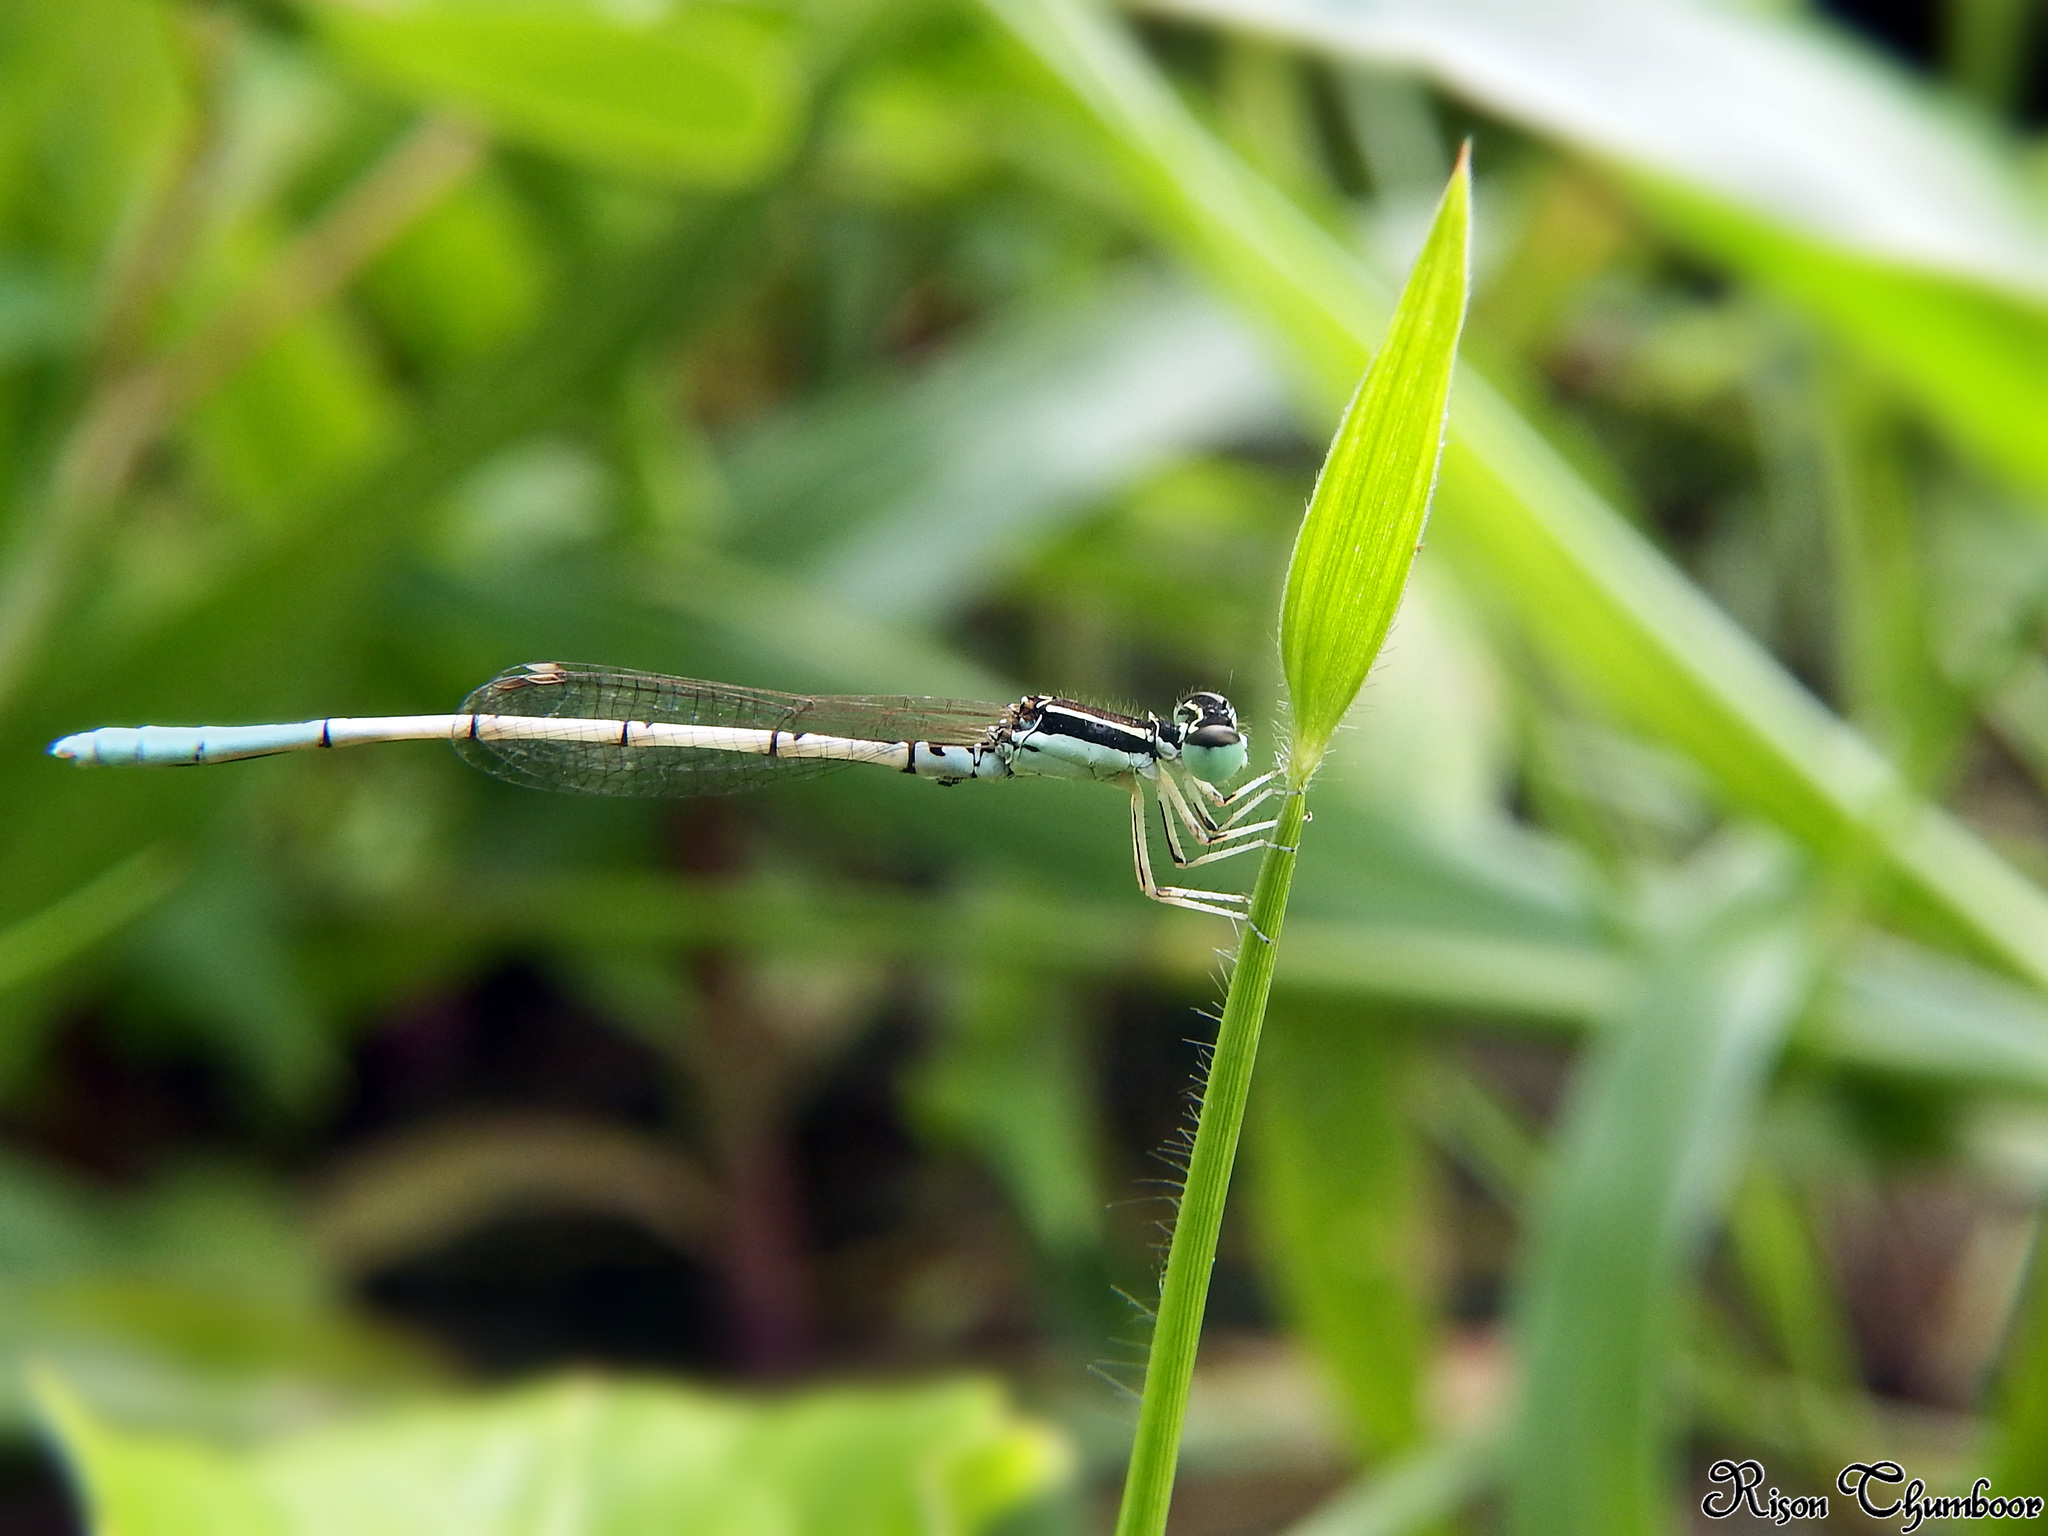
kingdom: Animalia
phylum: Arthropoda
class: Insecta
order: Odonata
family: Coenagrionidae
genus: Agriocnemis
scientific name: Agriocnemis pieris
